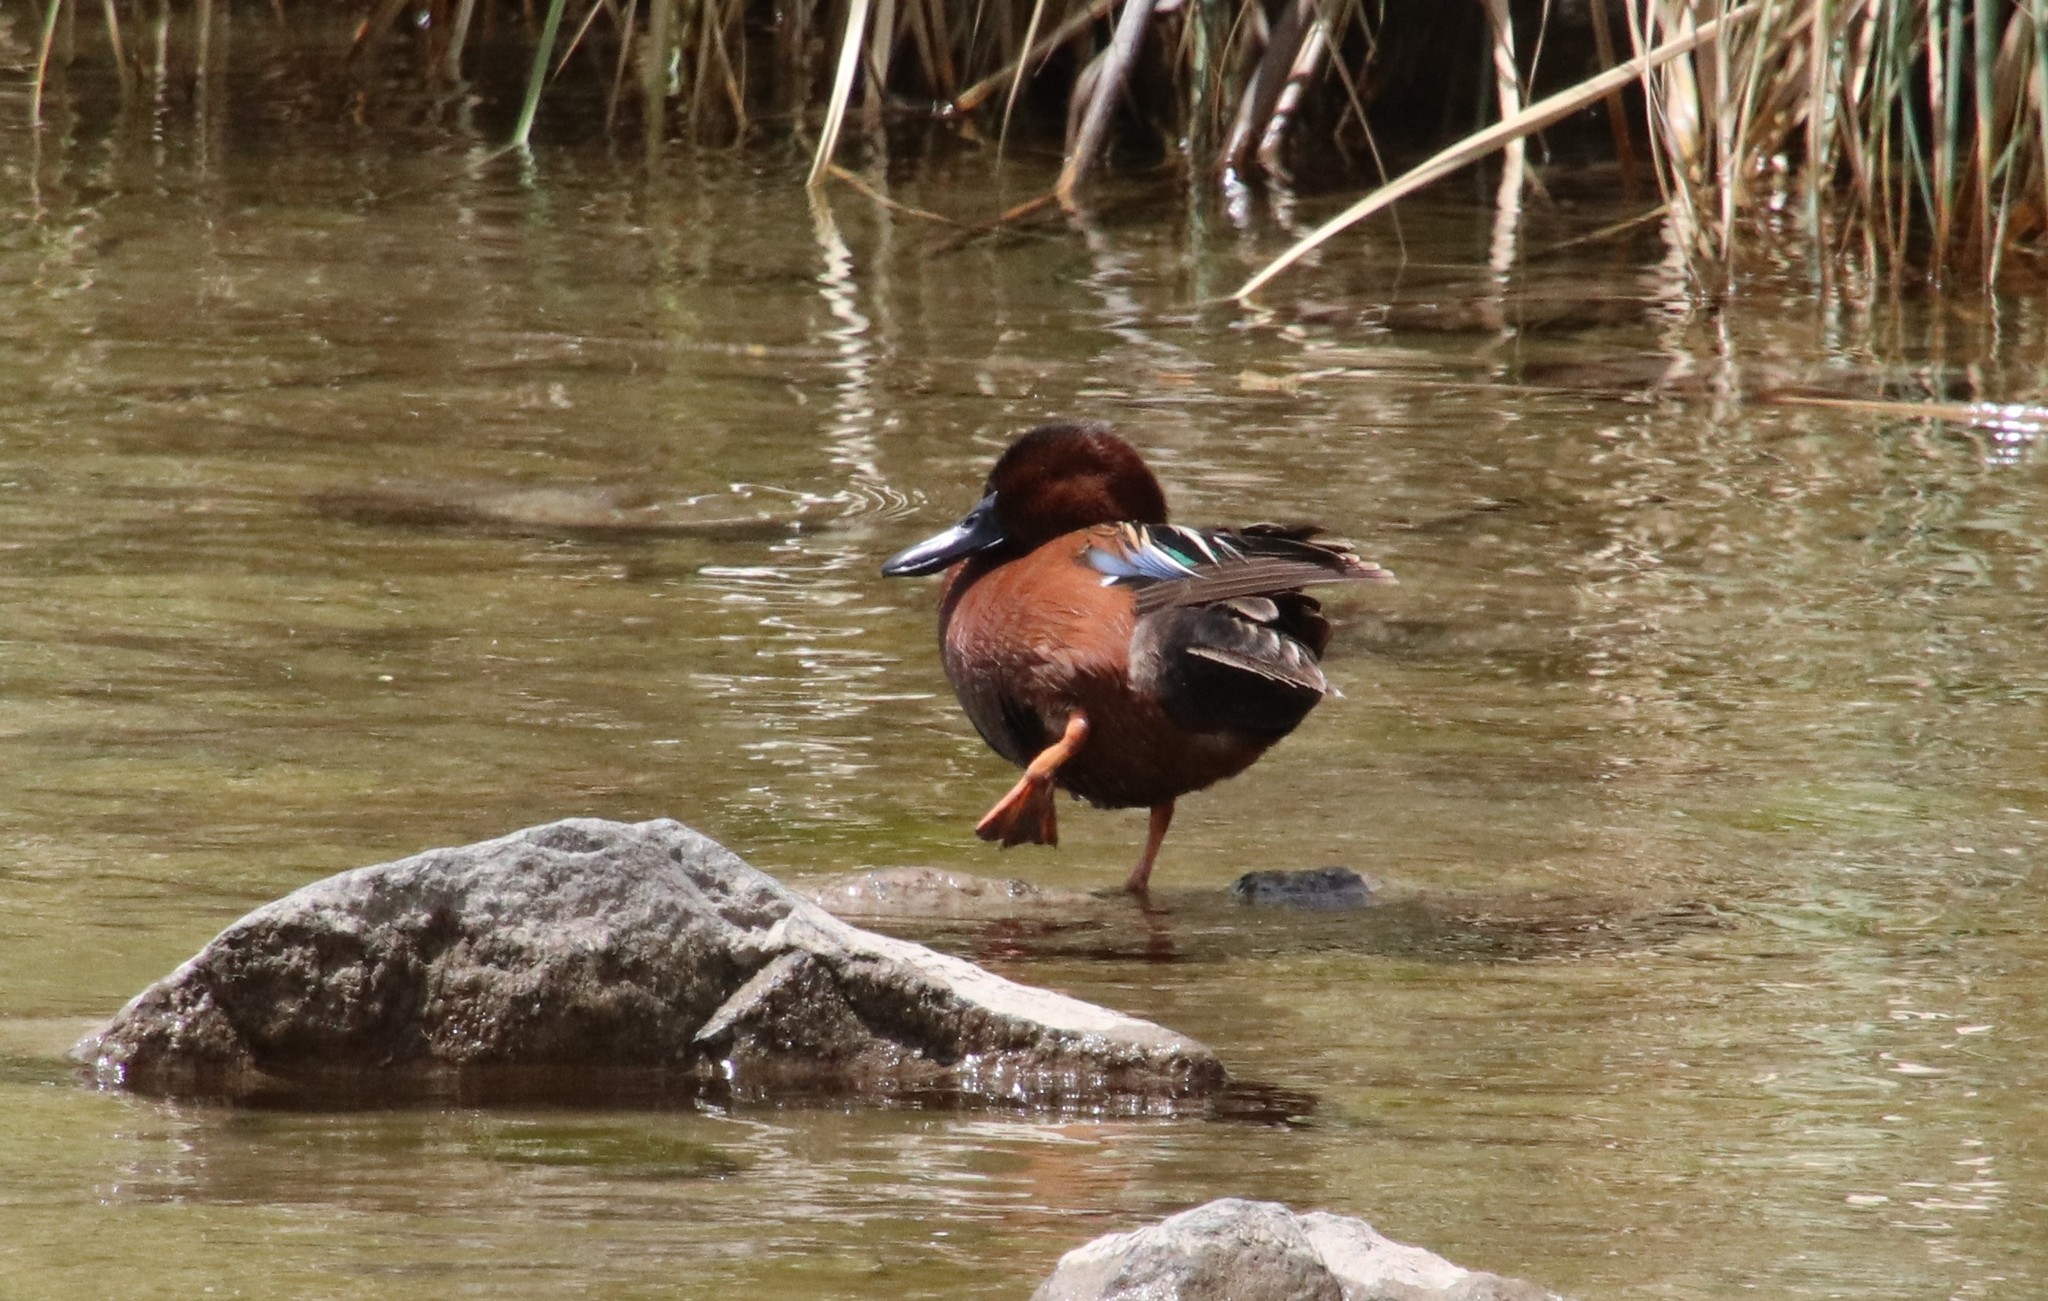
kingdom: Animalia
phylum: Chordata
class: Aves
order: Anseriformes
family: Anatidae
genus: Spatula
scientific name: Spatula cyanoptera
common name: Cinnamon teal
